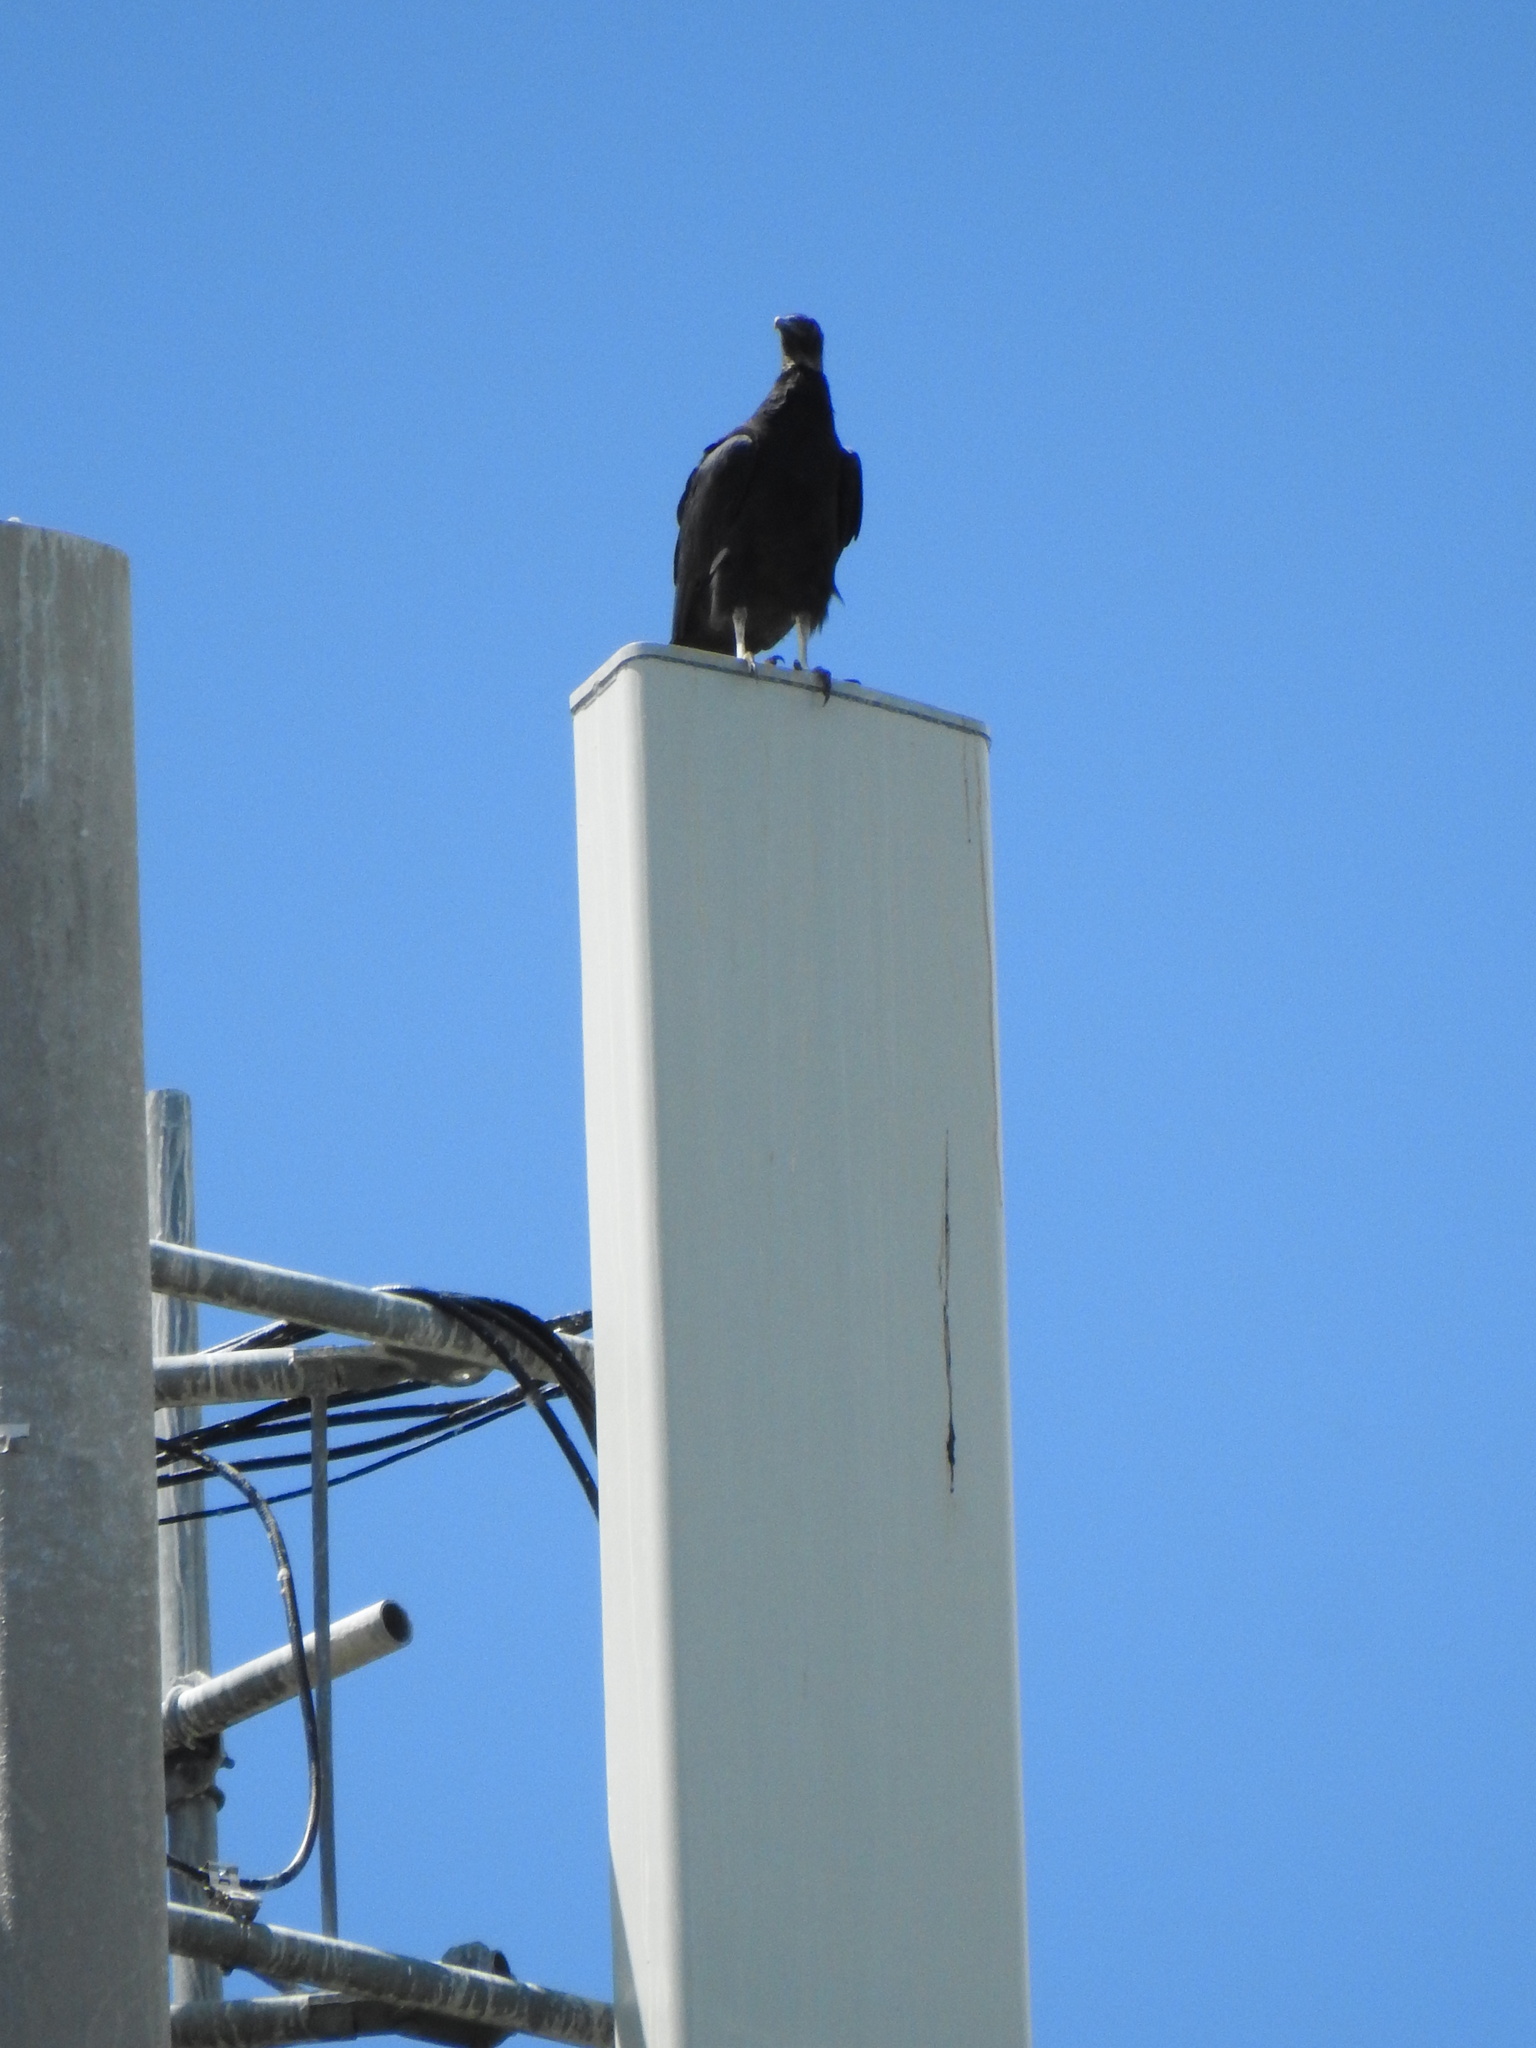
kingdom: Animalia
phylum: Chordata
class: Aves
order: Accipitriformes
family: Cathartidae
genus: Coragyps
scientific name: Coragyps atratus
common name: Black vulture
